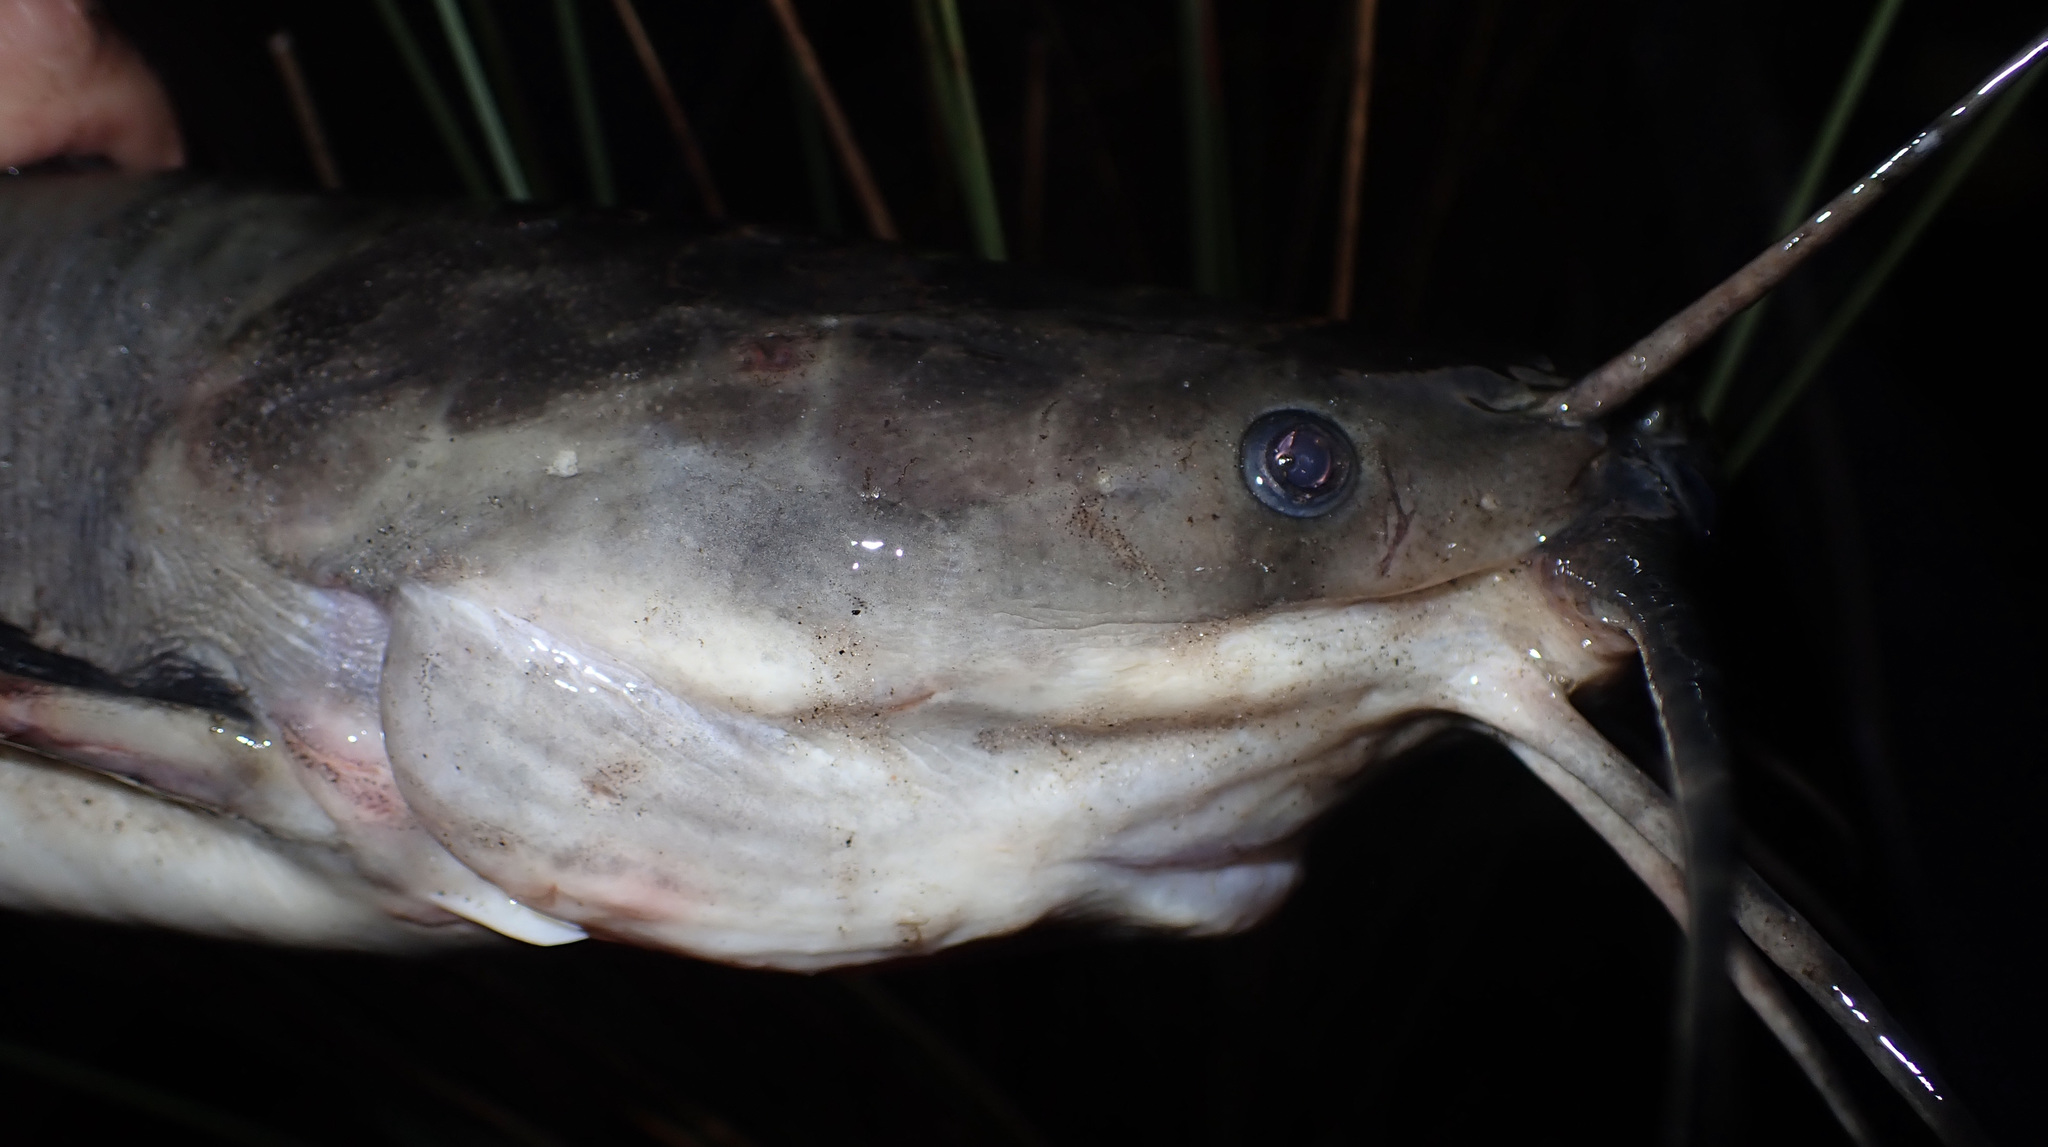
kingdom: Animalia
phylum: Chordata
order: Siluriformes
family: Clariidae
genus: Clarias
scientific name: Clarias ngamensis
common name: Blunt-toothed african catfish
